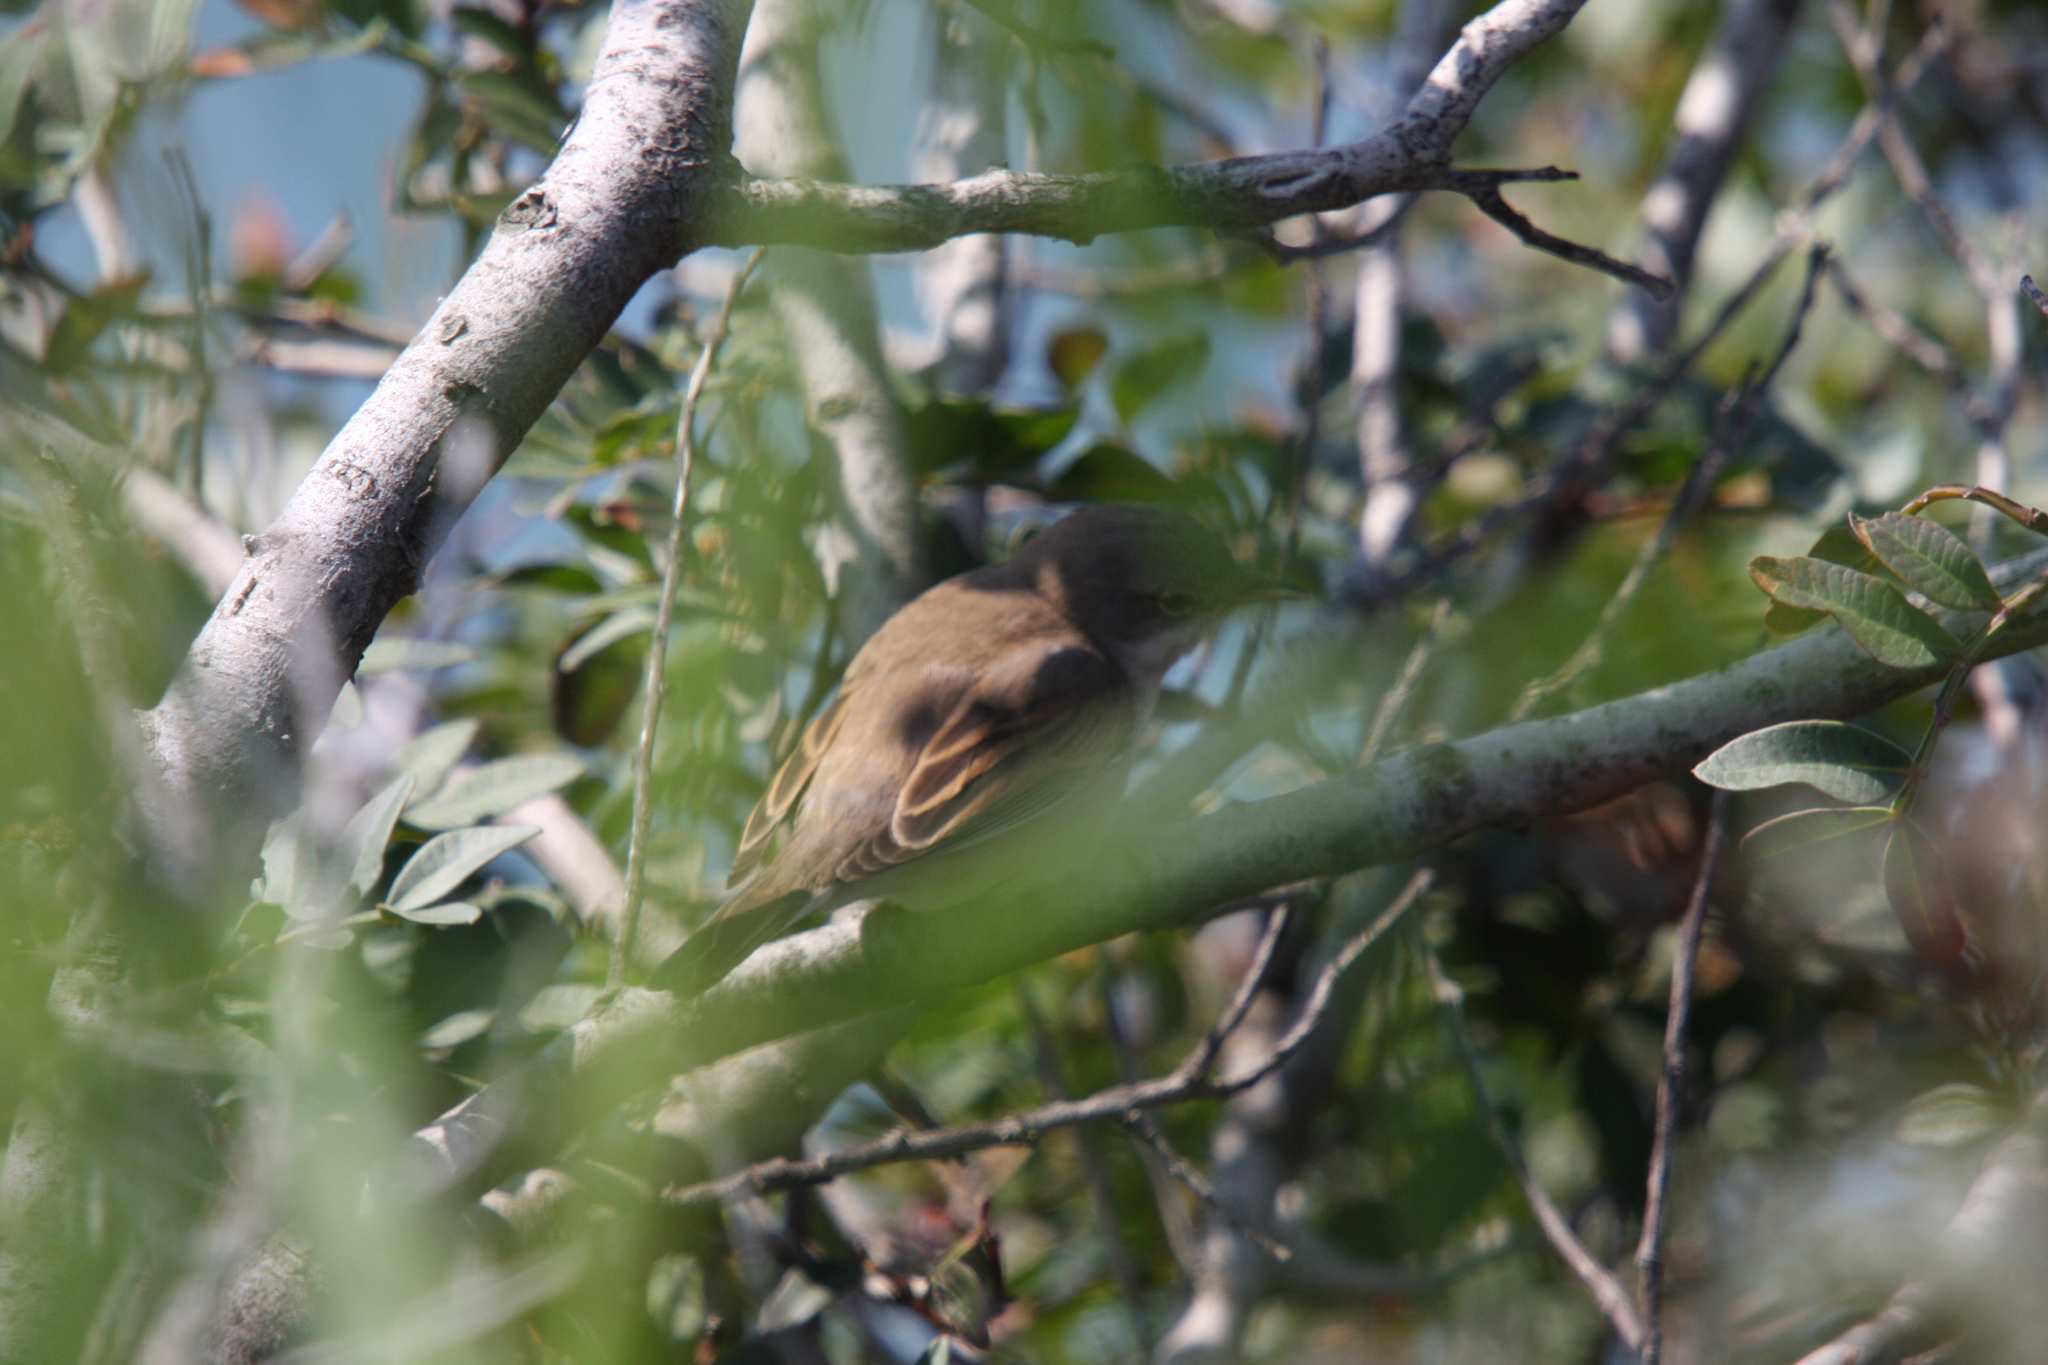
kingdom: Animalia
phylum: Chordata
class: Aves
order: Passeriformes
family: Sylviidae
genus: Sylvia
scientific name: Sylvia communis
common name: Common whitethroat
